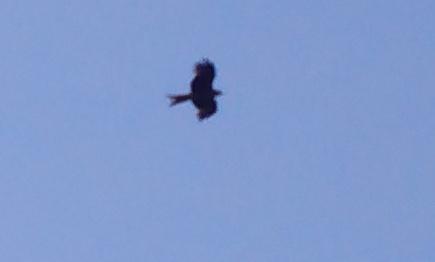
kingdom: Animalia
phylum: Chordata
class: Aves
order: Accipitriformes
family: Accipitridae
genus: Milvus
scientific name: Milvus migrans
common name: Black kite
